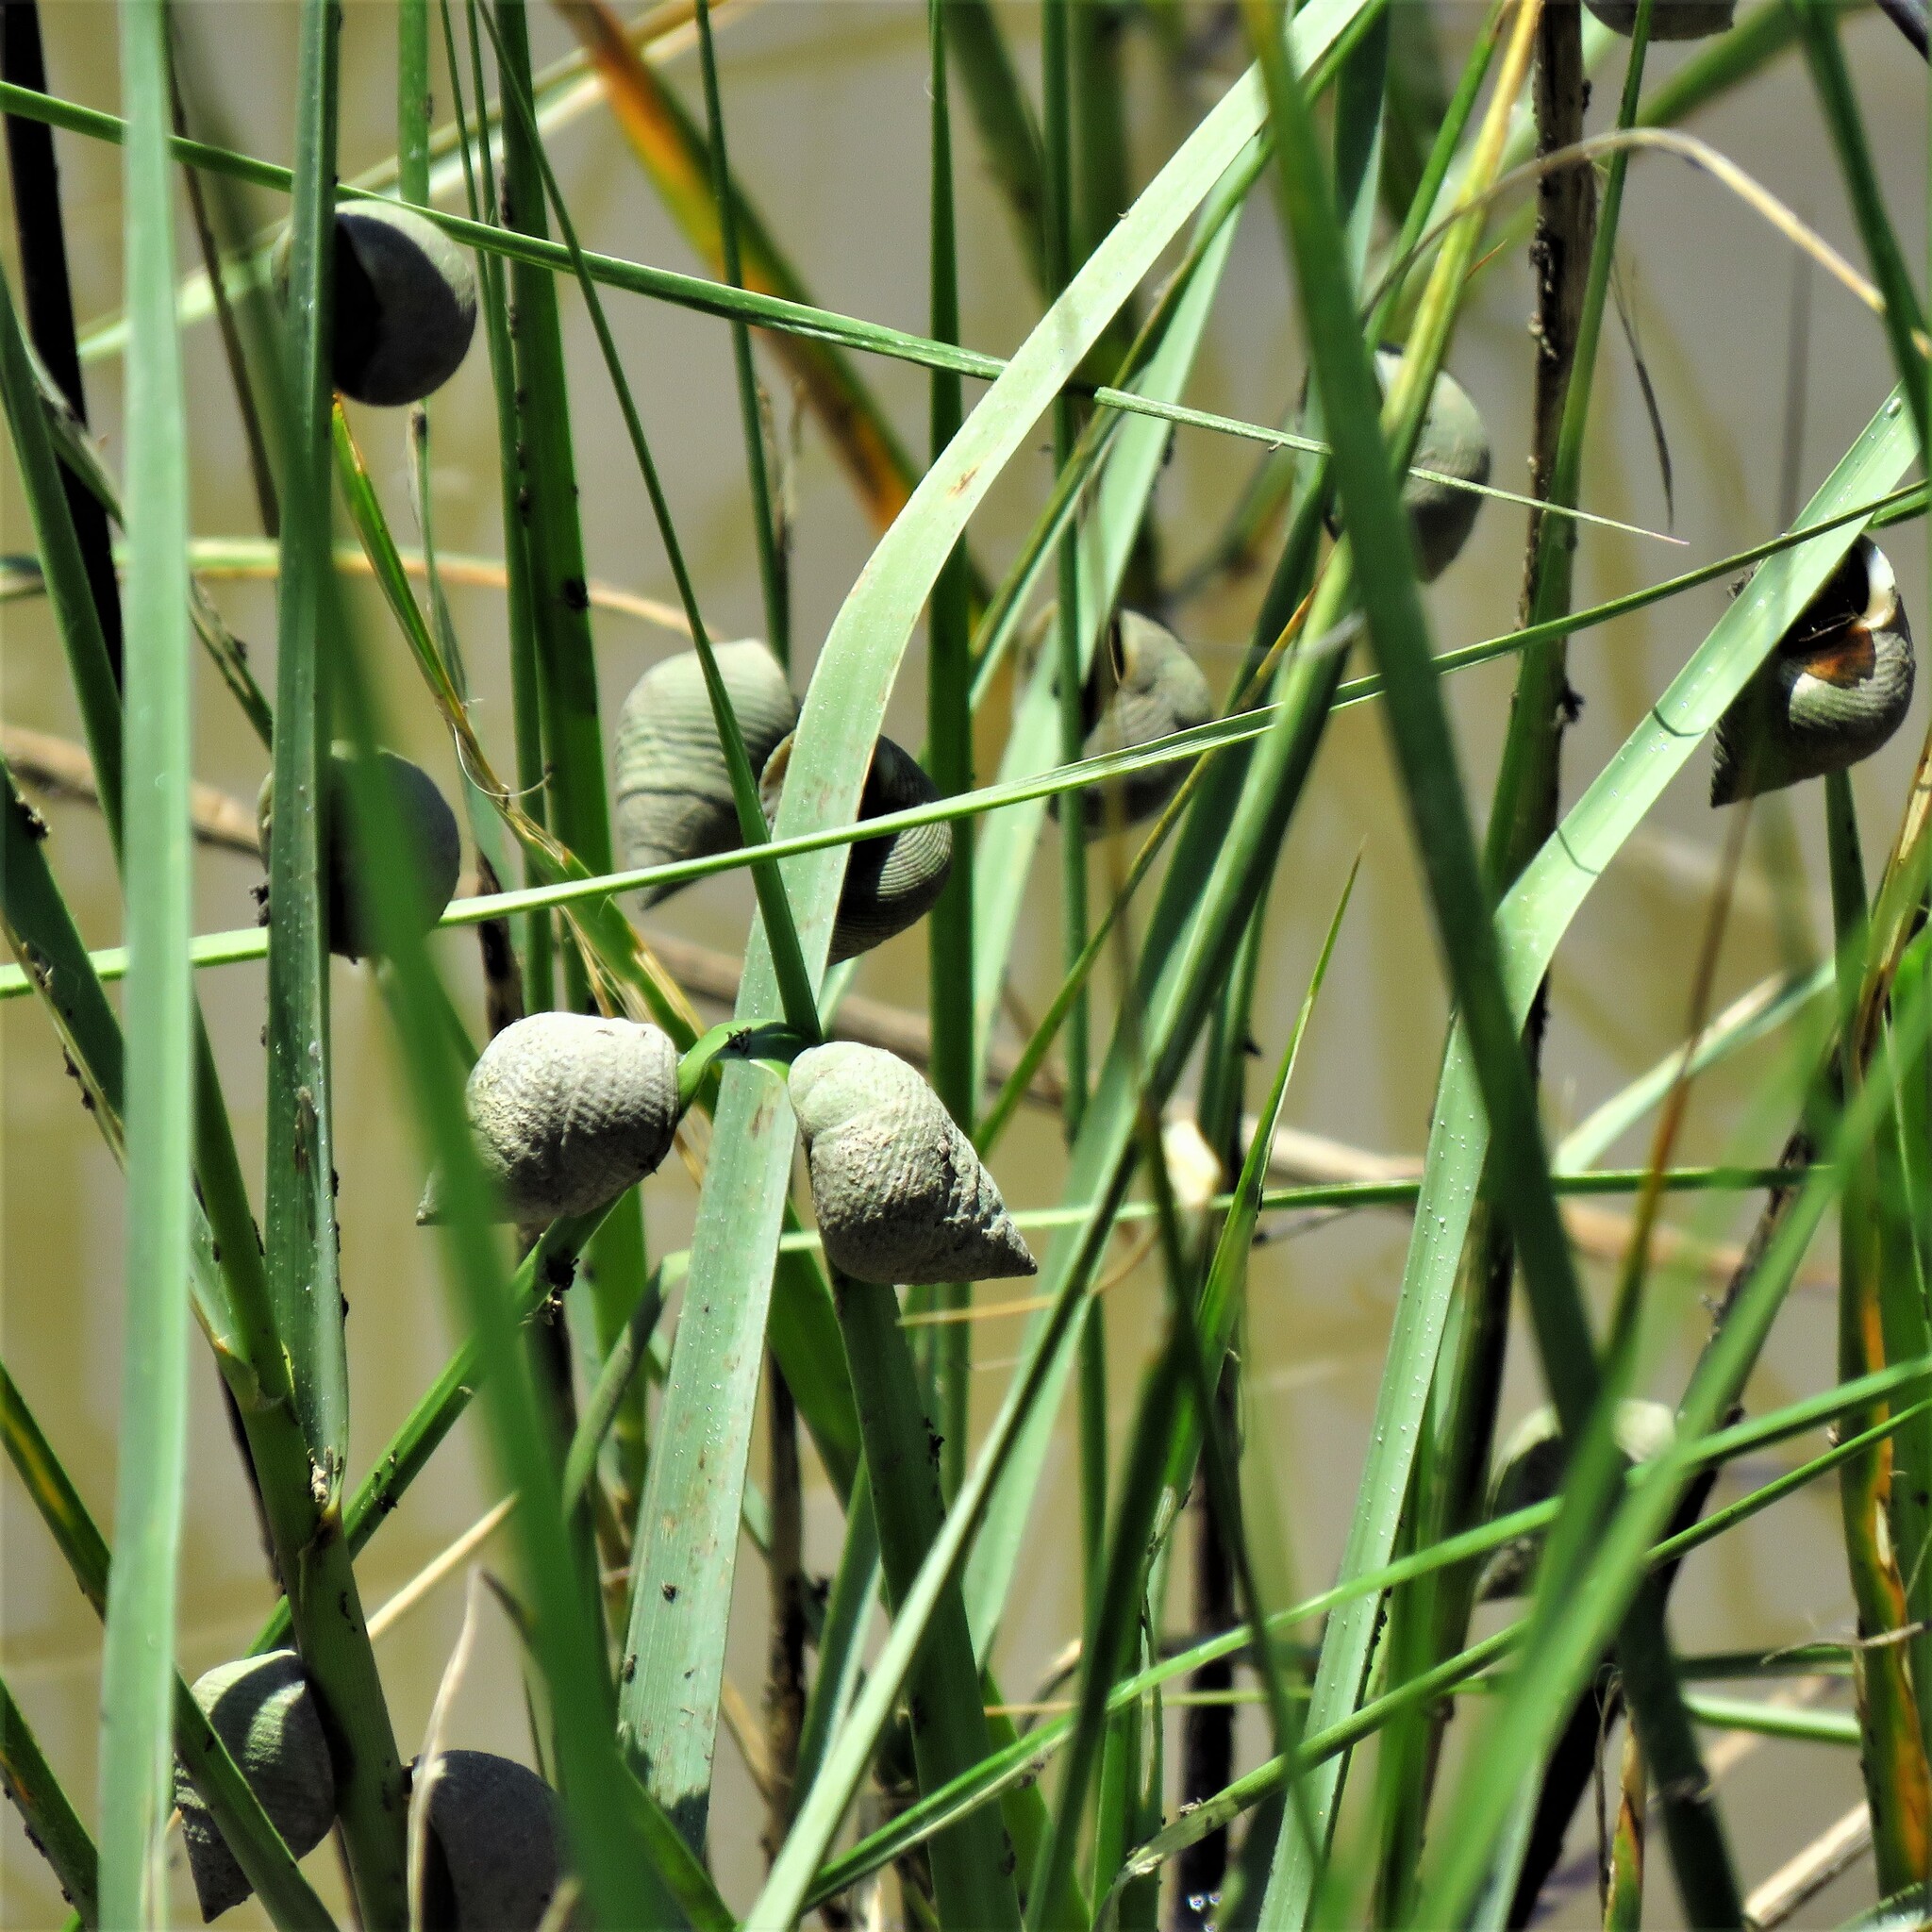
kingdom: Animalia
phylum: Mollusca
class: Gastropoda
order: Littorinimorpha
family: Littorinidae
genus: Littoraria
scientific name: Littoraria irrorata
